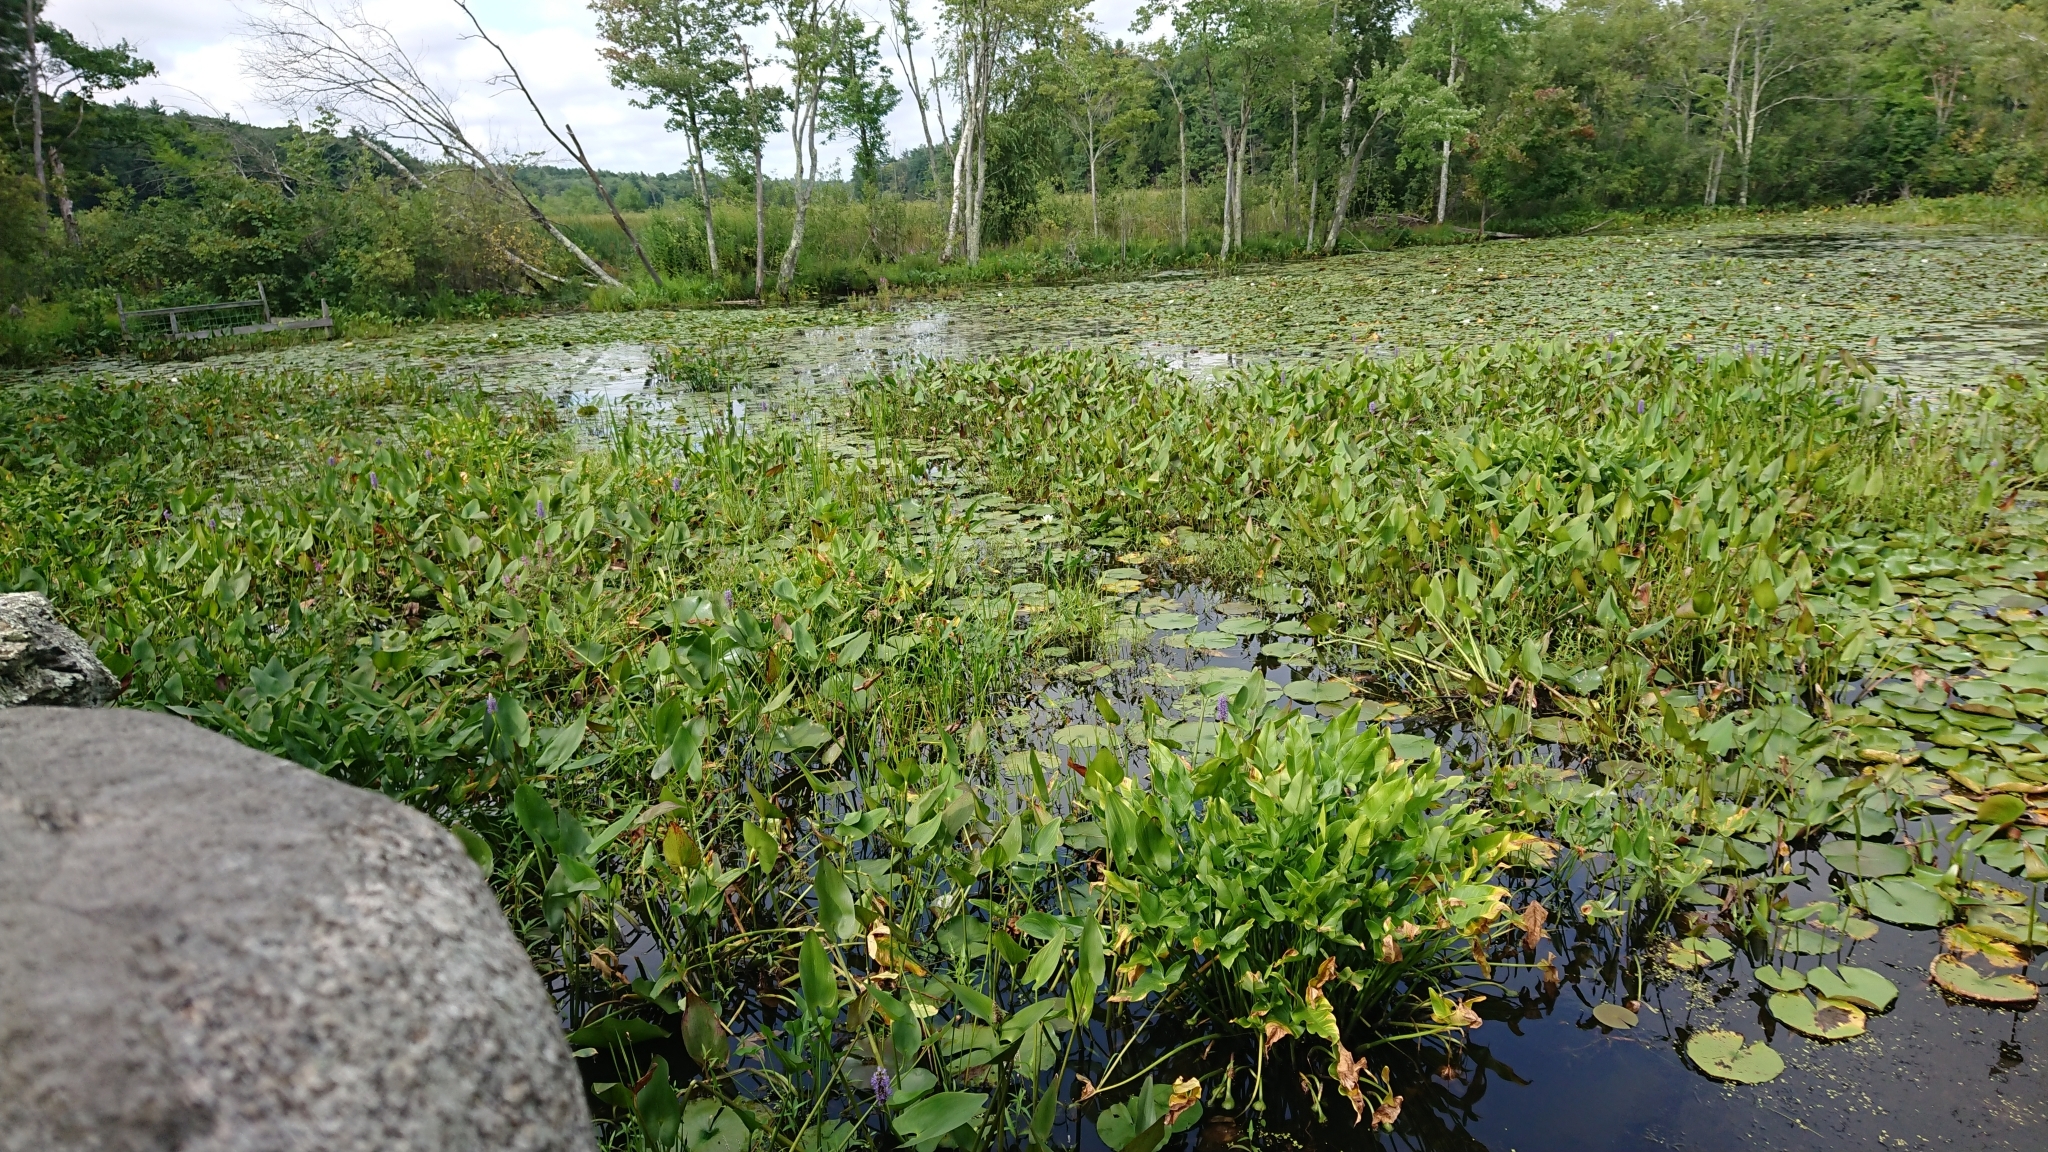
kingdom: Plantae
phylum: Tracheophyta
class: Liliopsida
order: Commelinales
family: Pontederiaceae
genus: Pontederia
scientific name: Pontederia cordata
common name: Pickerelweed
